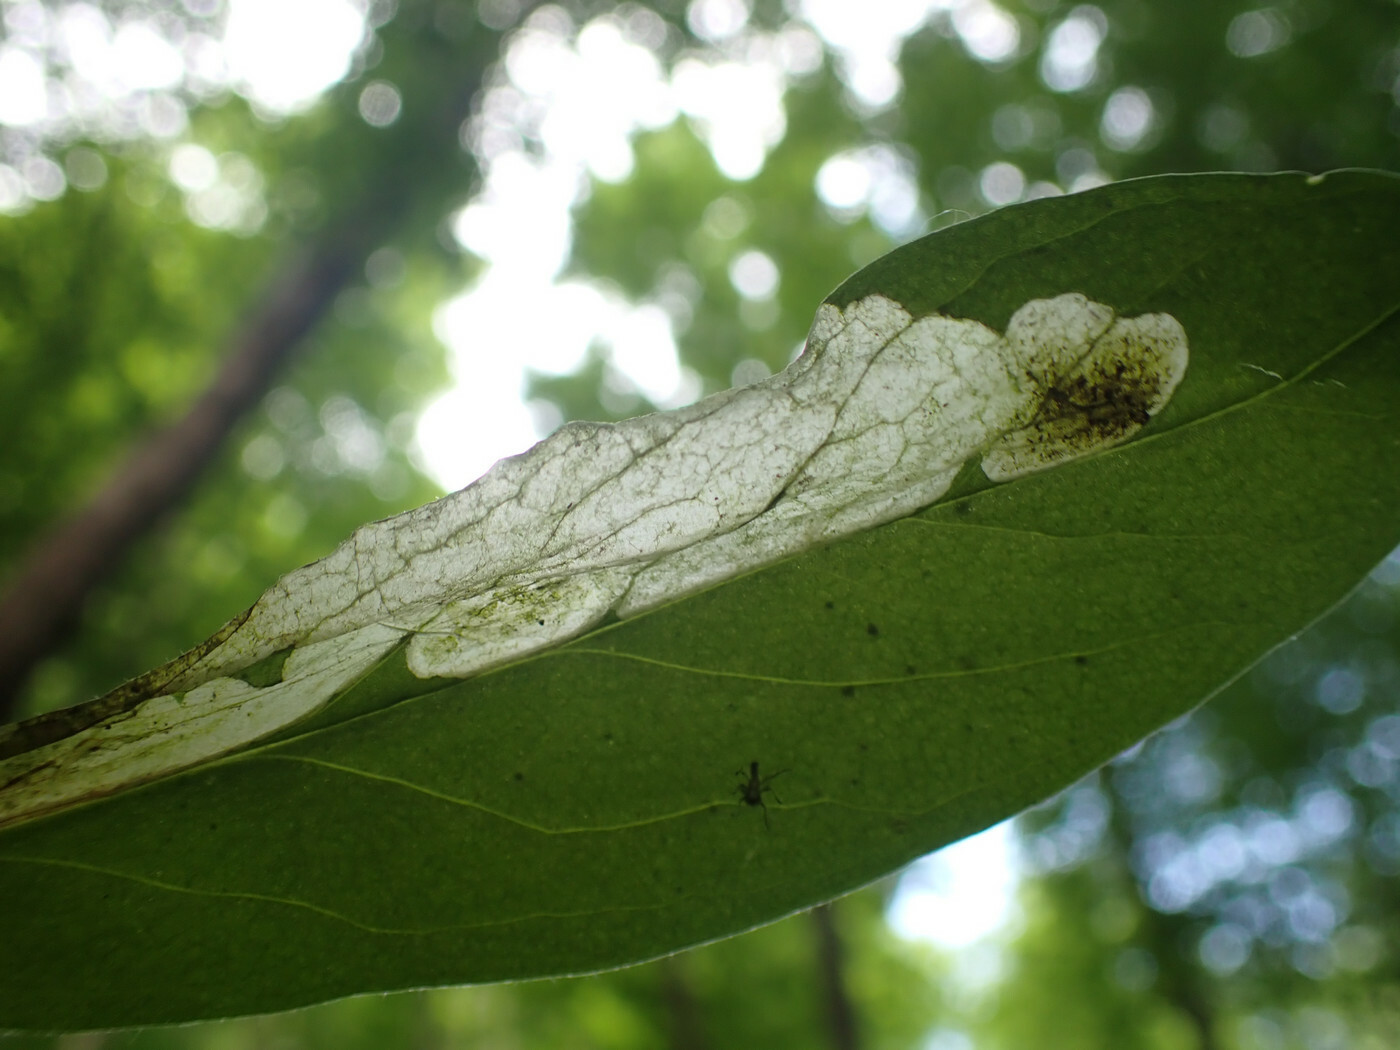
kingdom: Animalia
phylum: Arthropoda
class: Insecta
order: Diptera
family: Anthomyiidae
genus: Pegomya
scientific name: Pegomya flavifrons
